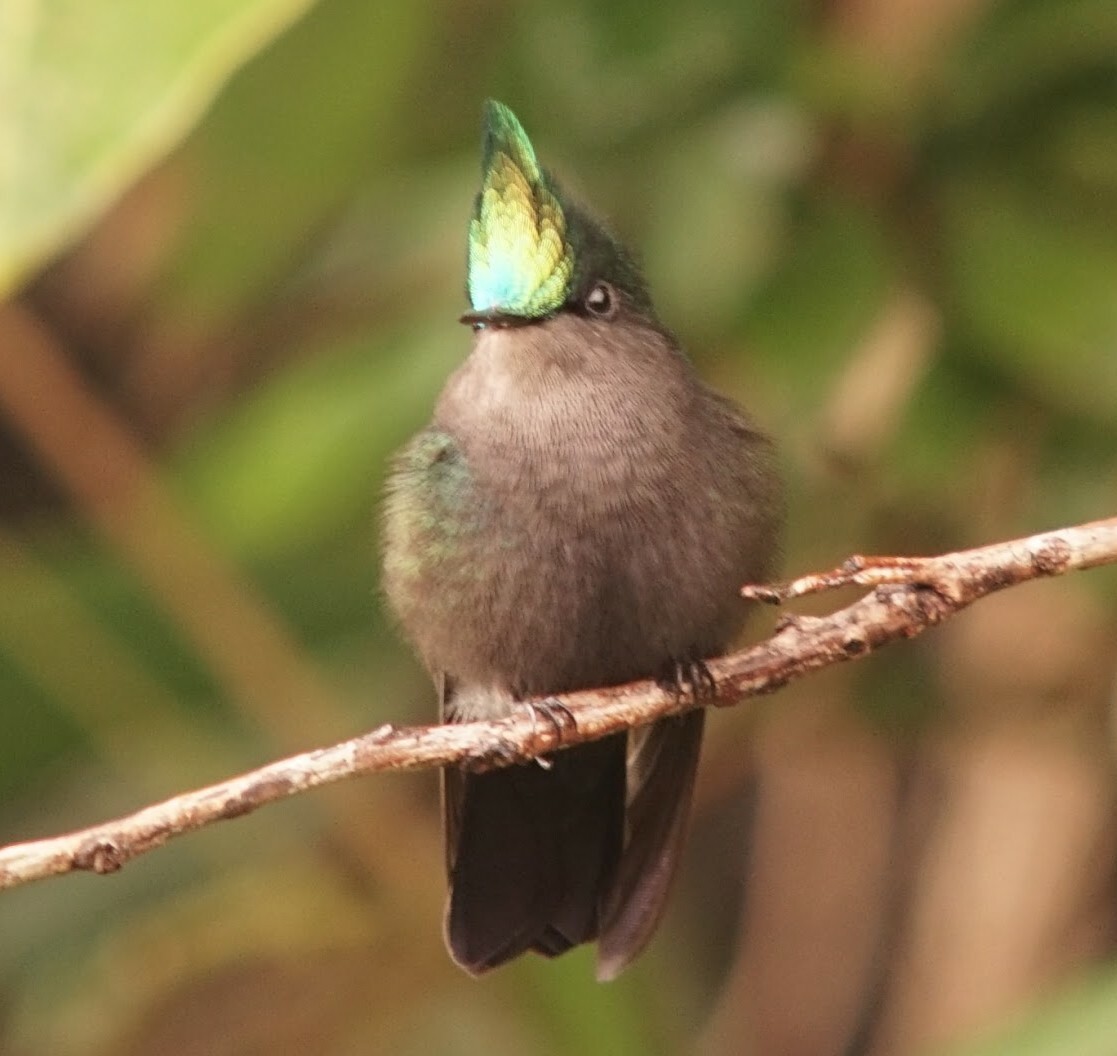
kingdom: Animalia
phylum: Chordata
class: Aves
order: Apodiformes
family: Trochilidae
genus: Orthorhyncus
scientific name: Orthorhyncus cristatus
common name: Antillean crested hummingbird
